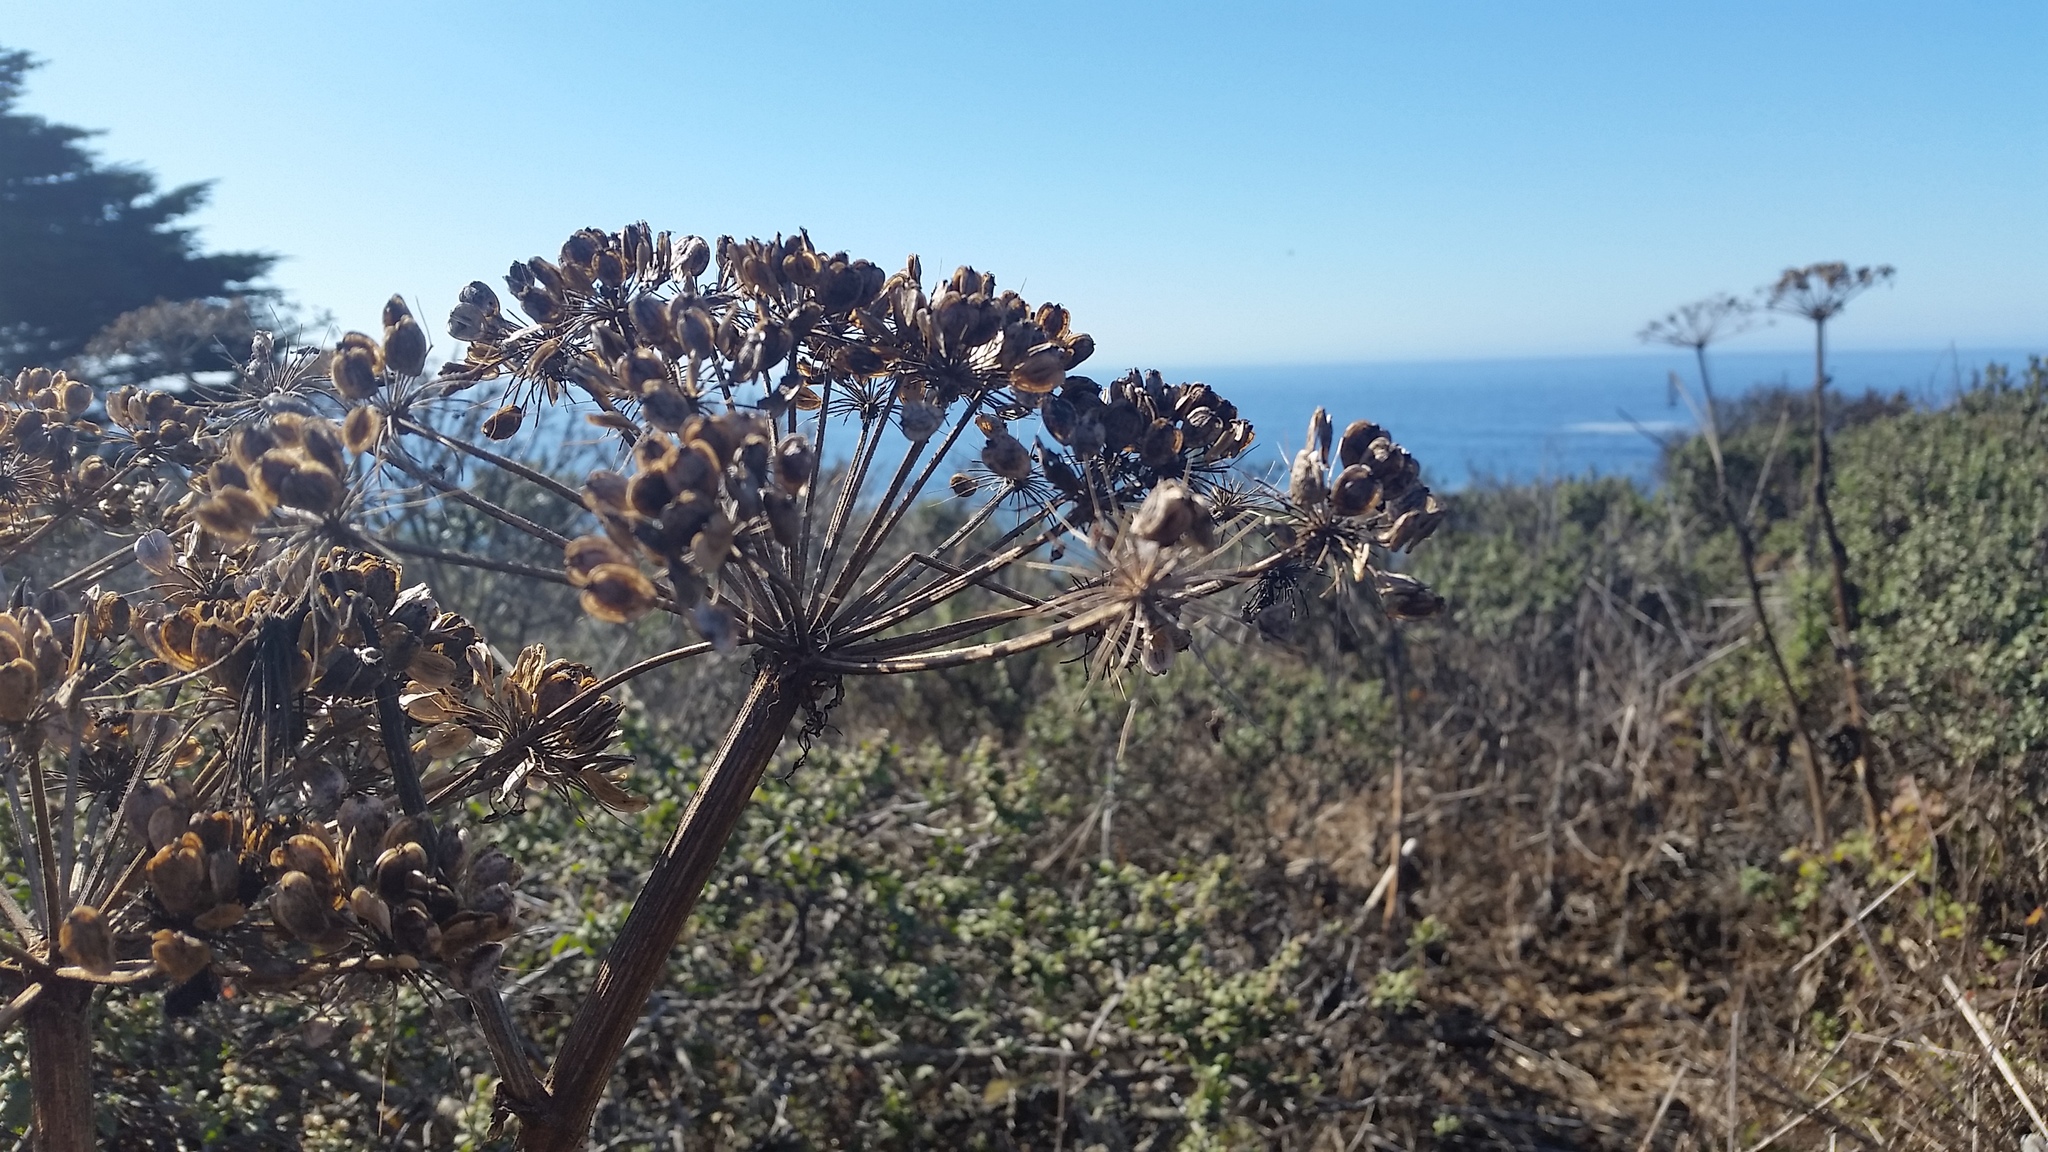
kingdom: Plantae
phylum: Tracheophyta
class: Magnoliopsida
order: Apiales
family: Apiaceae
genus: Heracleum
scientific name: Heracleum maximum
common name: American cow parsnip
